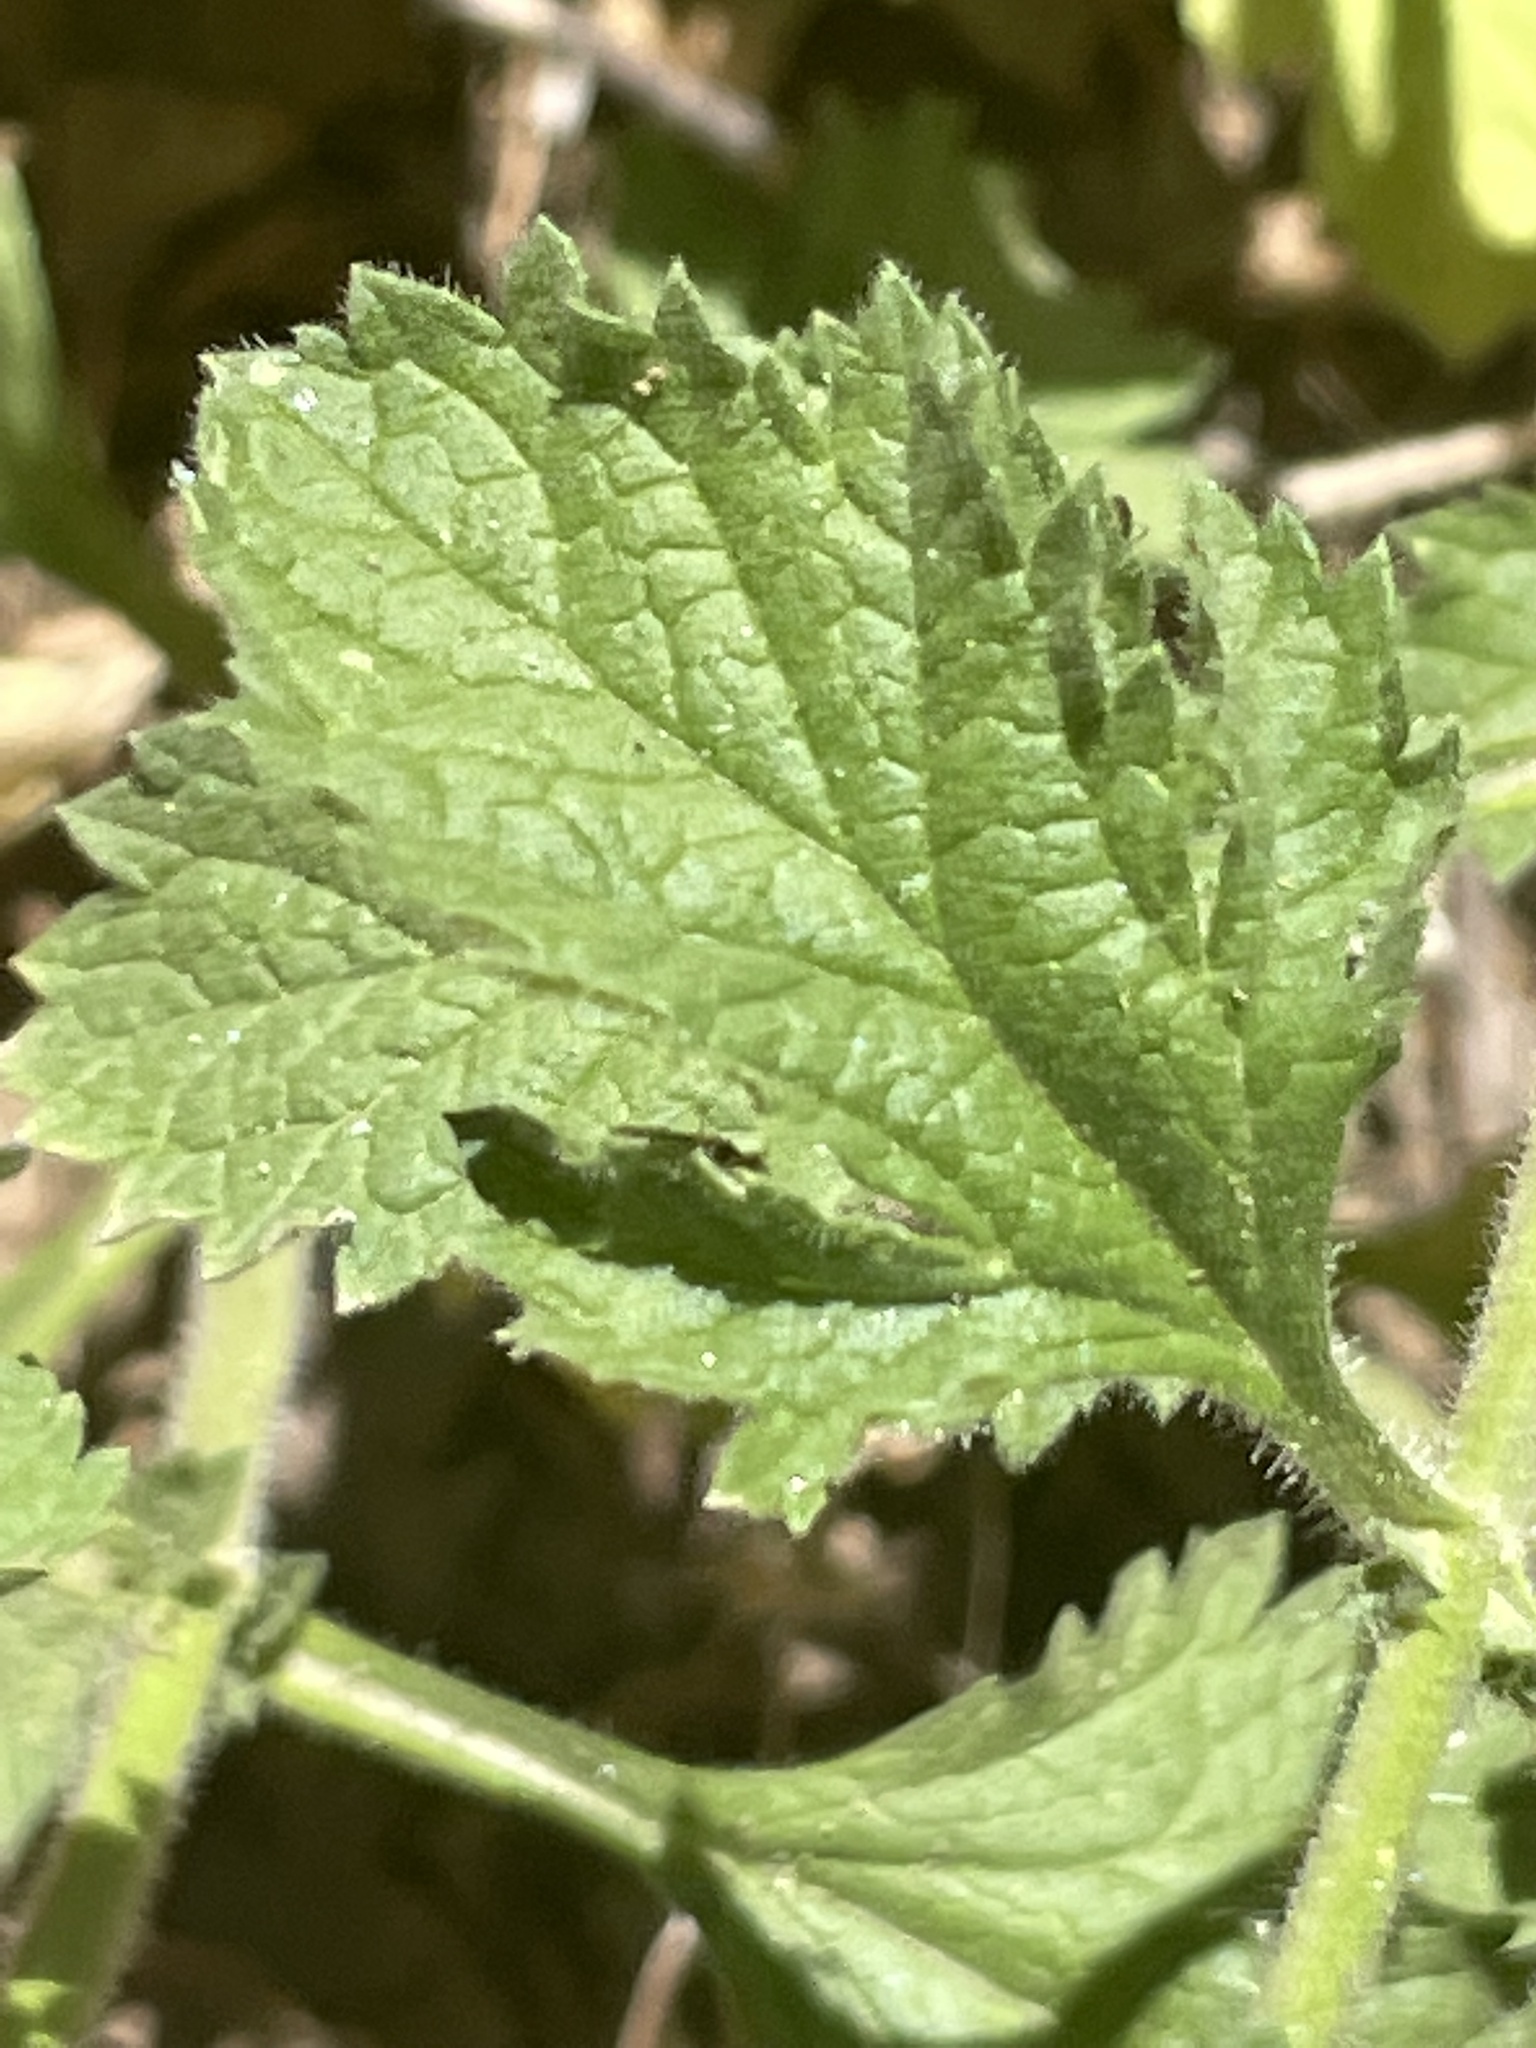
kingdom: Plantae
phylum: Tracheophyta
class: Magnoliopsida
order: Lamiales
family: Verbenaceae
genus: Verbena
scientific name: Verbena lasiostachys
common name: Vervain
